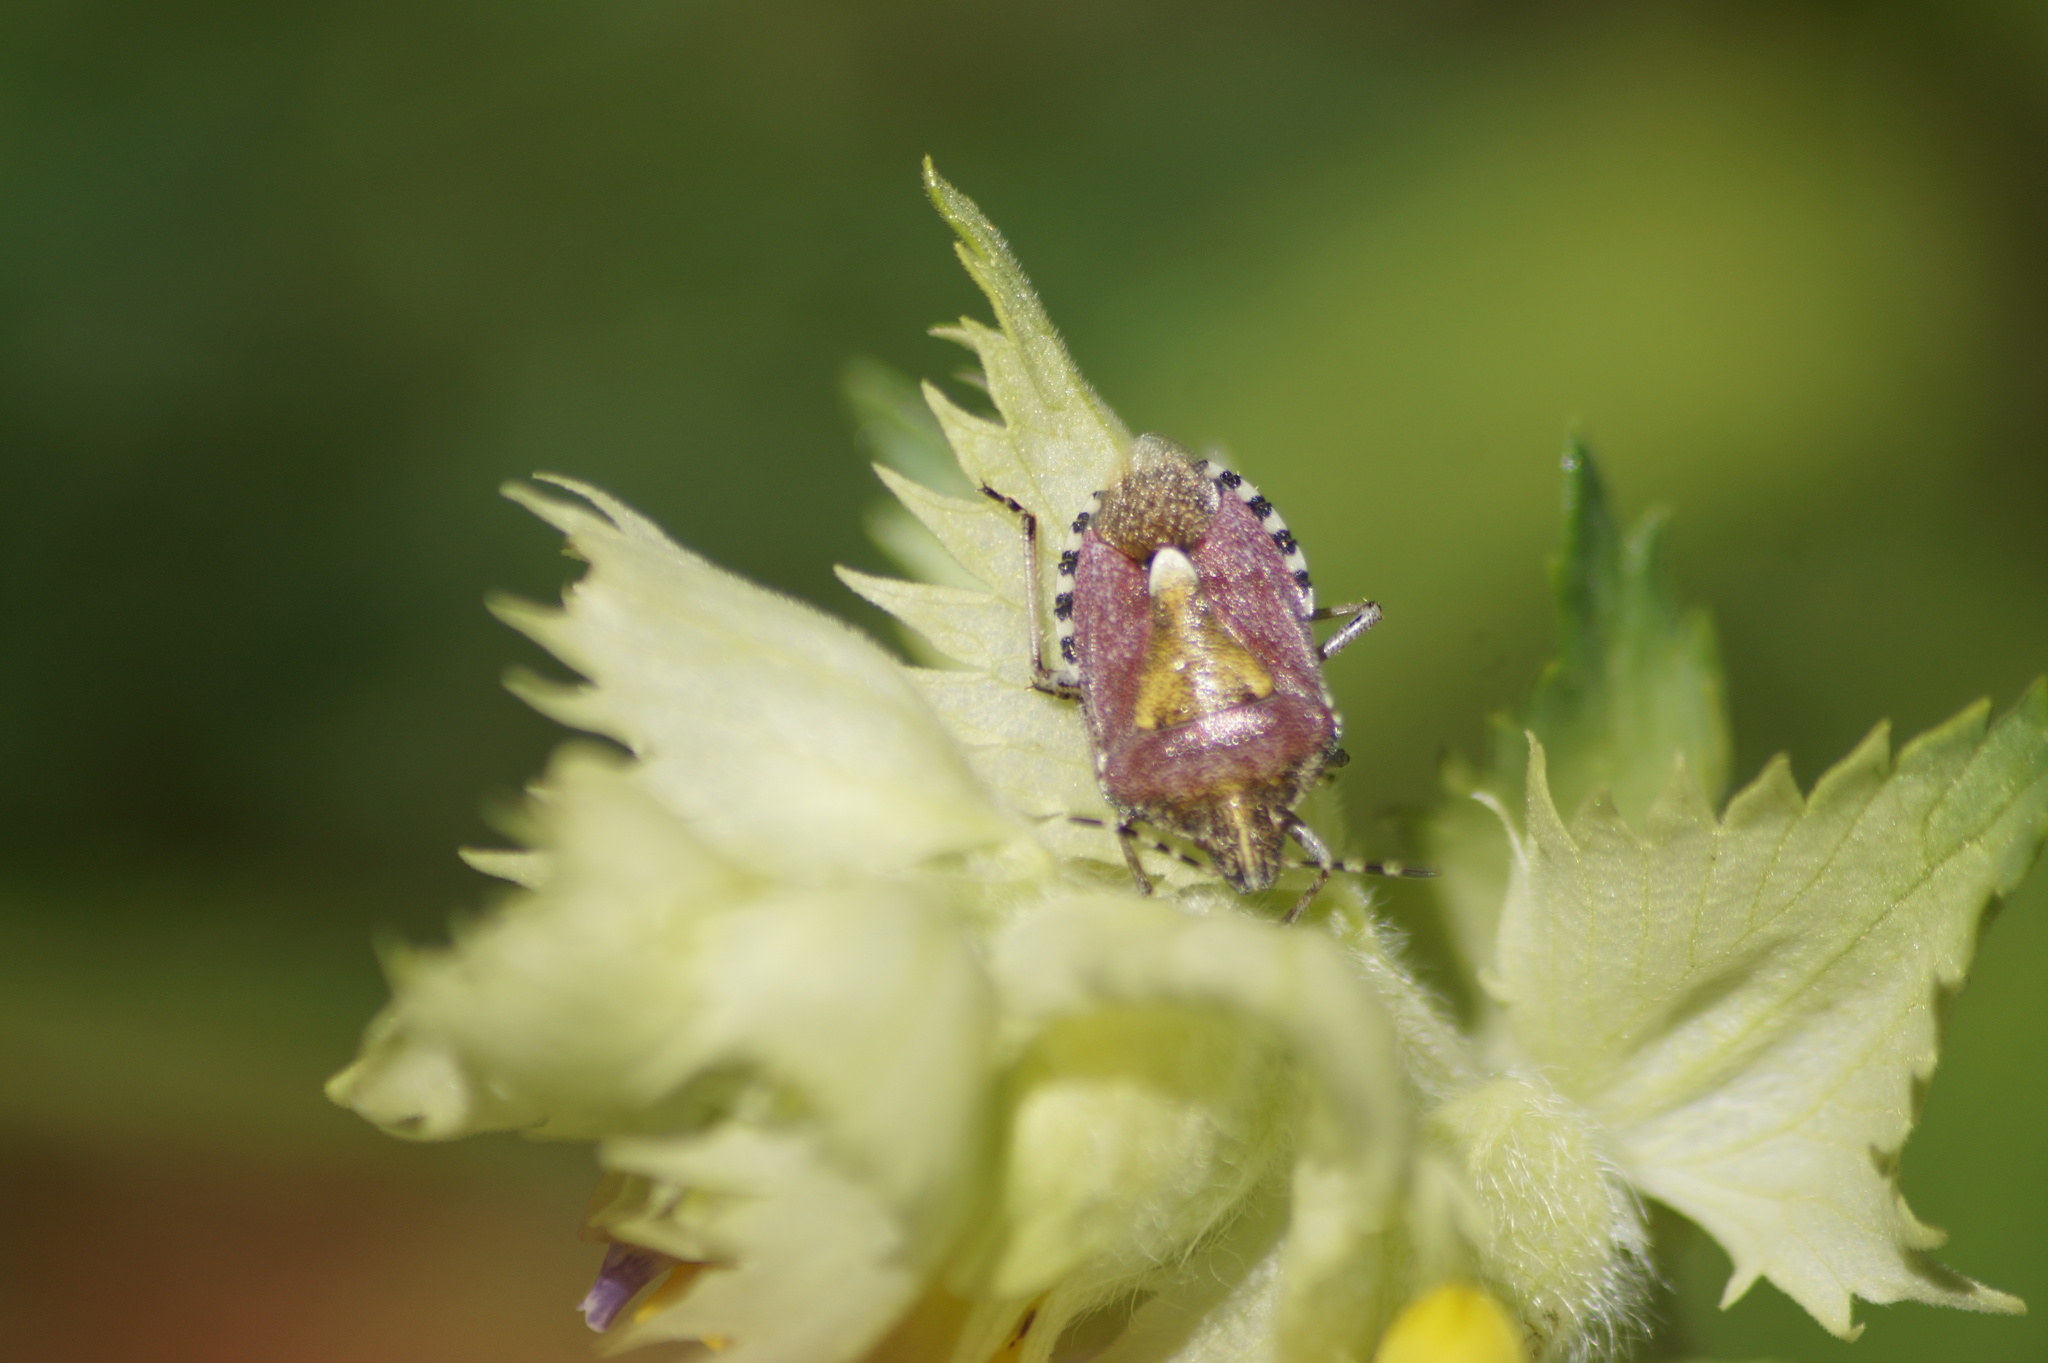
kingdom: Animalia
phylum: Arthropoda
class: Insecta
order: Hemiptera
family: Pentatomidae
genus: Dolycoris
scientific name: Dolycoris baccarum
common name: Sloe bug
